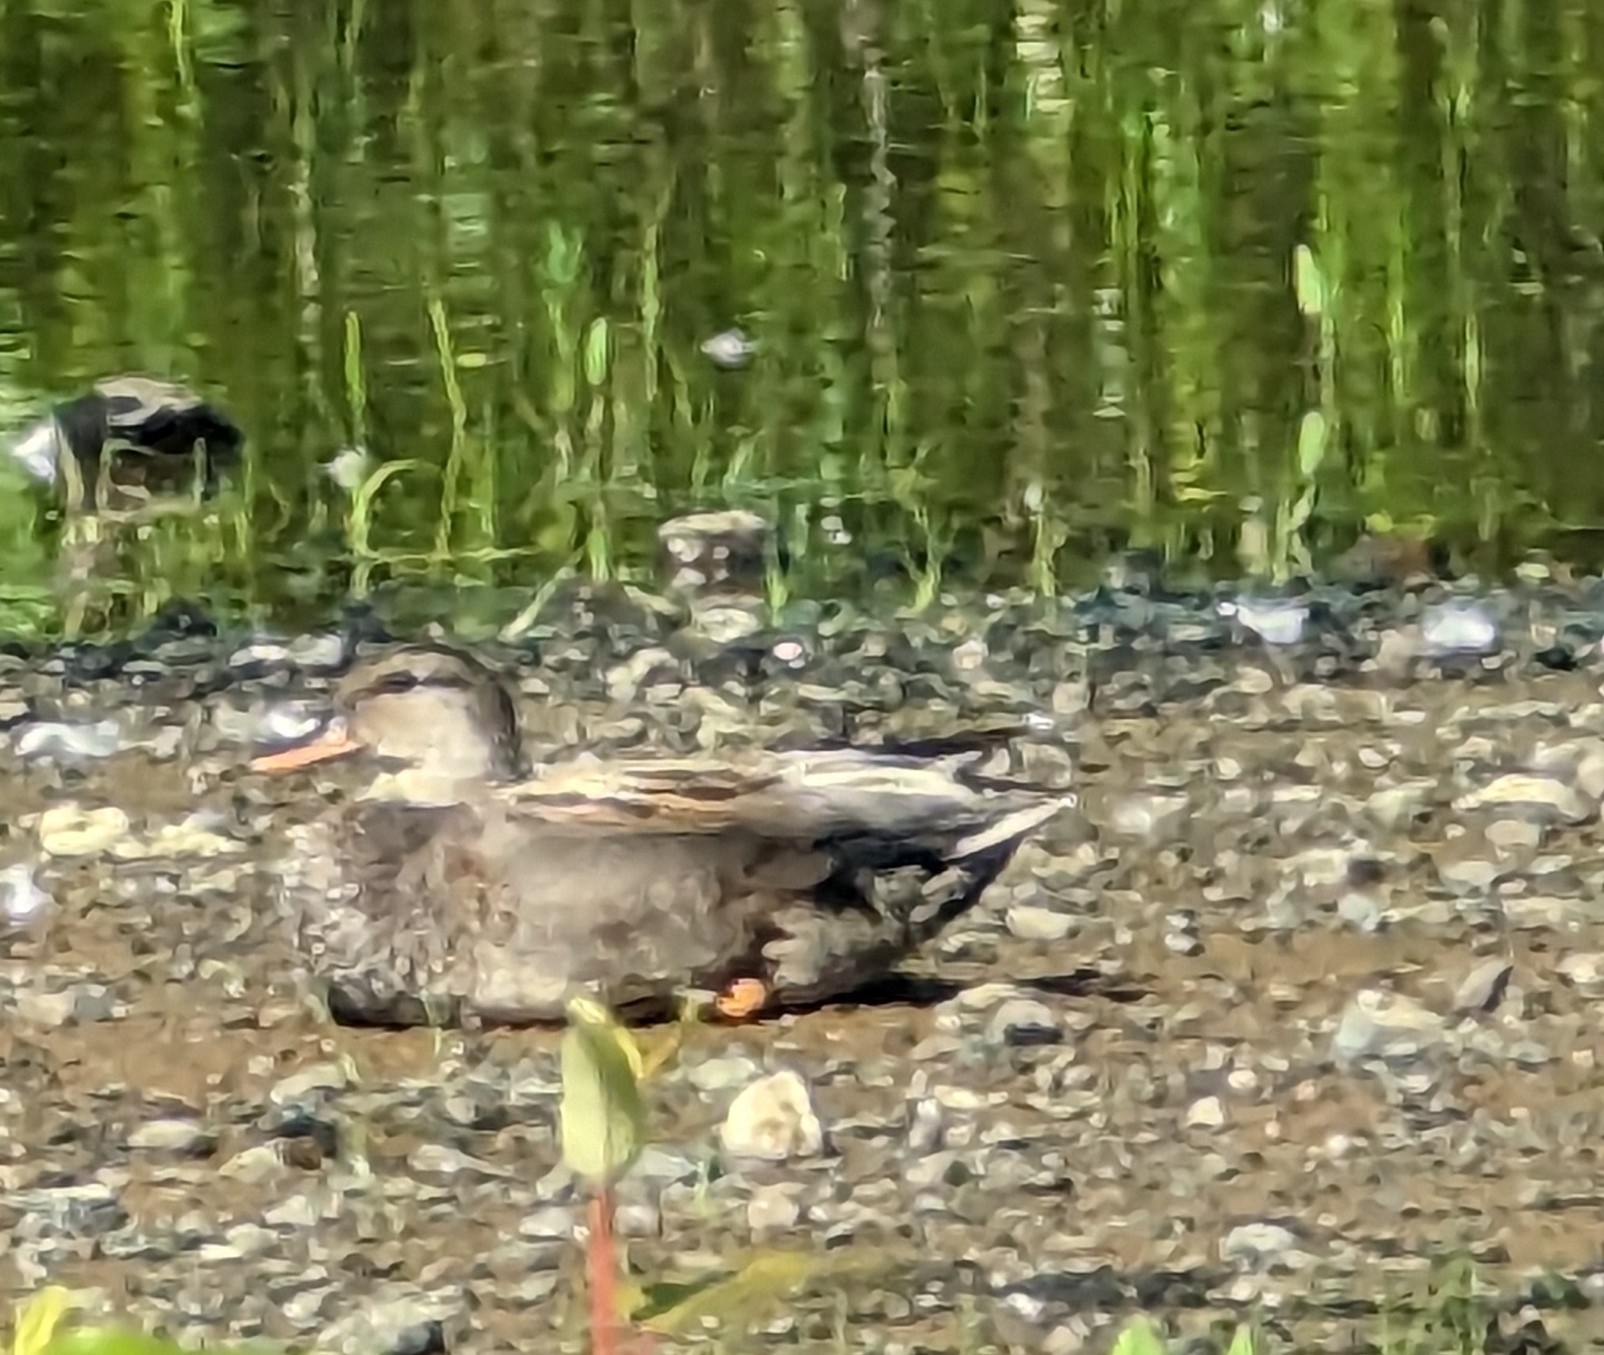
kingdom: Animalia
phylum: Chordata
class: Aves
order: Anseriformes
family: Anatidae
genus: Mareca
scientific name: Mareca strepera
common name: Gadwall
